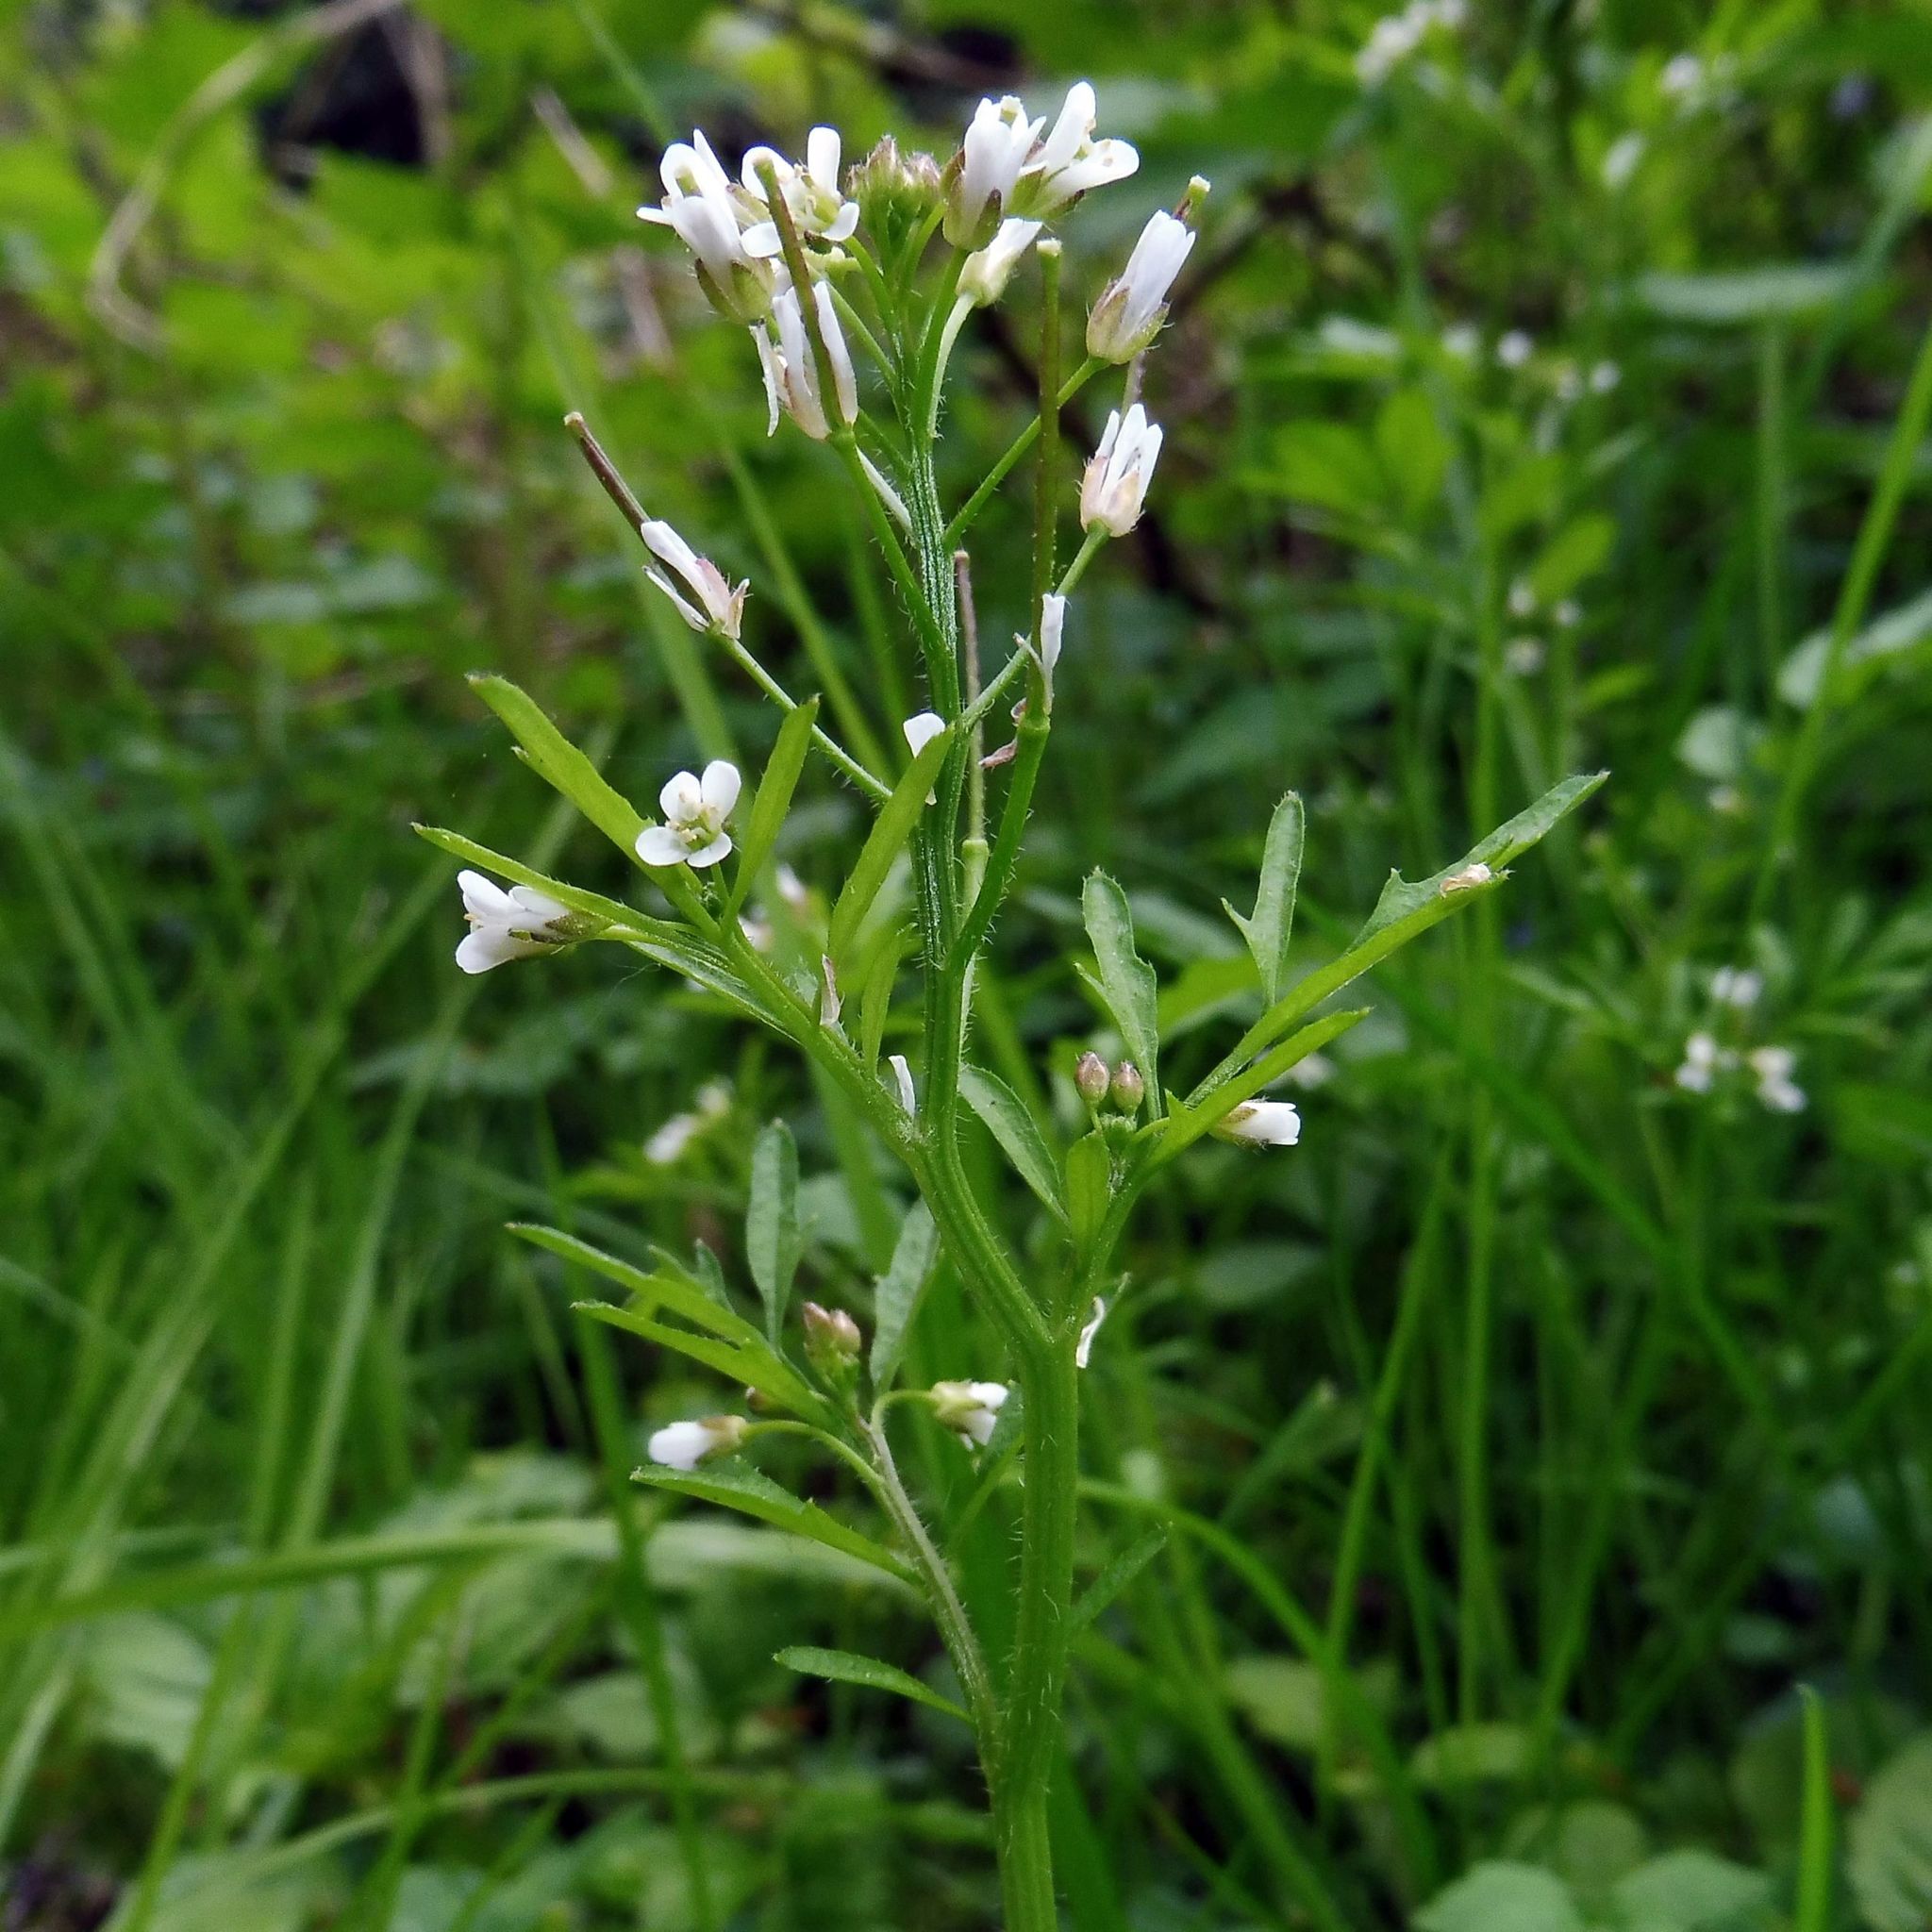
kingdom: Plantae
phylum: Tracheophyta
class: Magnoliopsida
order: Brassicales
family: Brassicaceae
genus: Cardamine
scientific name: Cardamine flexuosa
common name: Woodland bittercress
